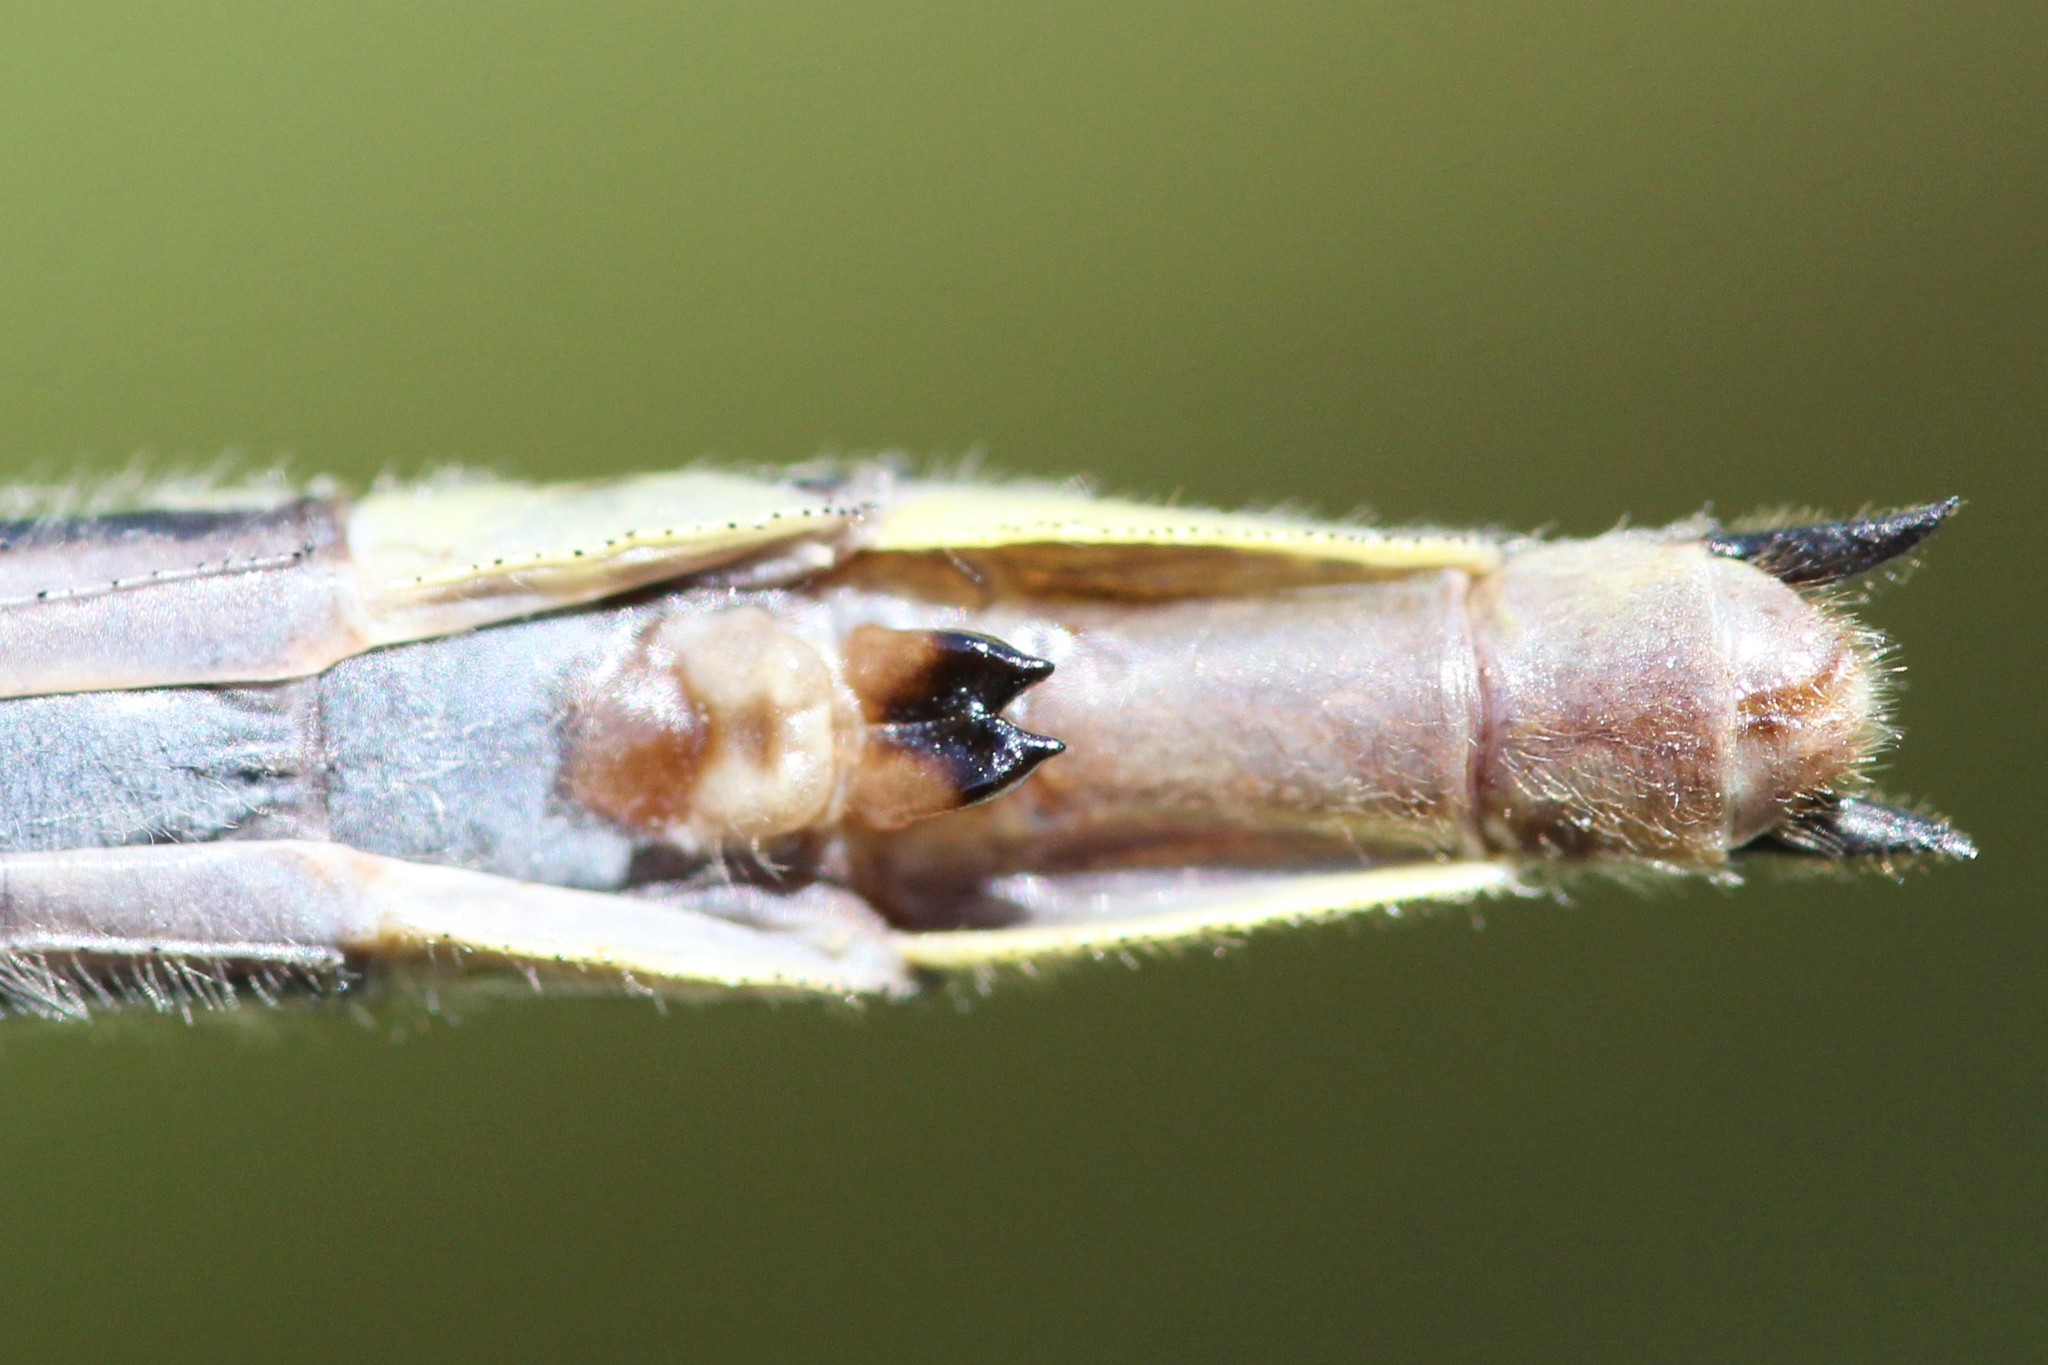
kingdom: Animalia
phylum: Arthropoda
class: Insecta
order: Odonata
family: Gomphidae
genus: Phanogomphus
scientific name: Phanogomphus descriptus
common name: Harpoon clubtail
